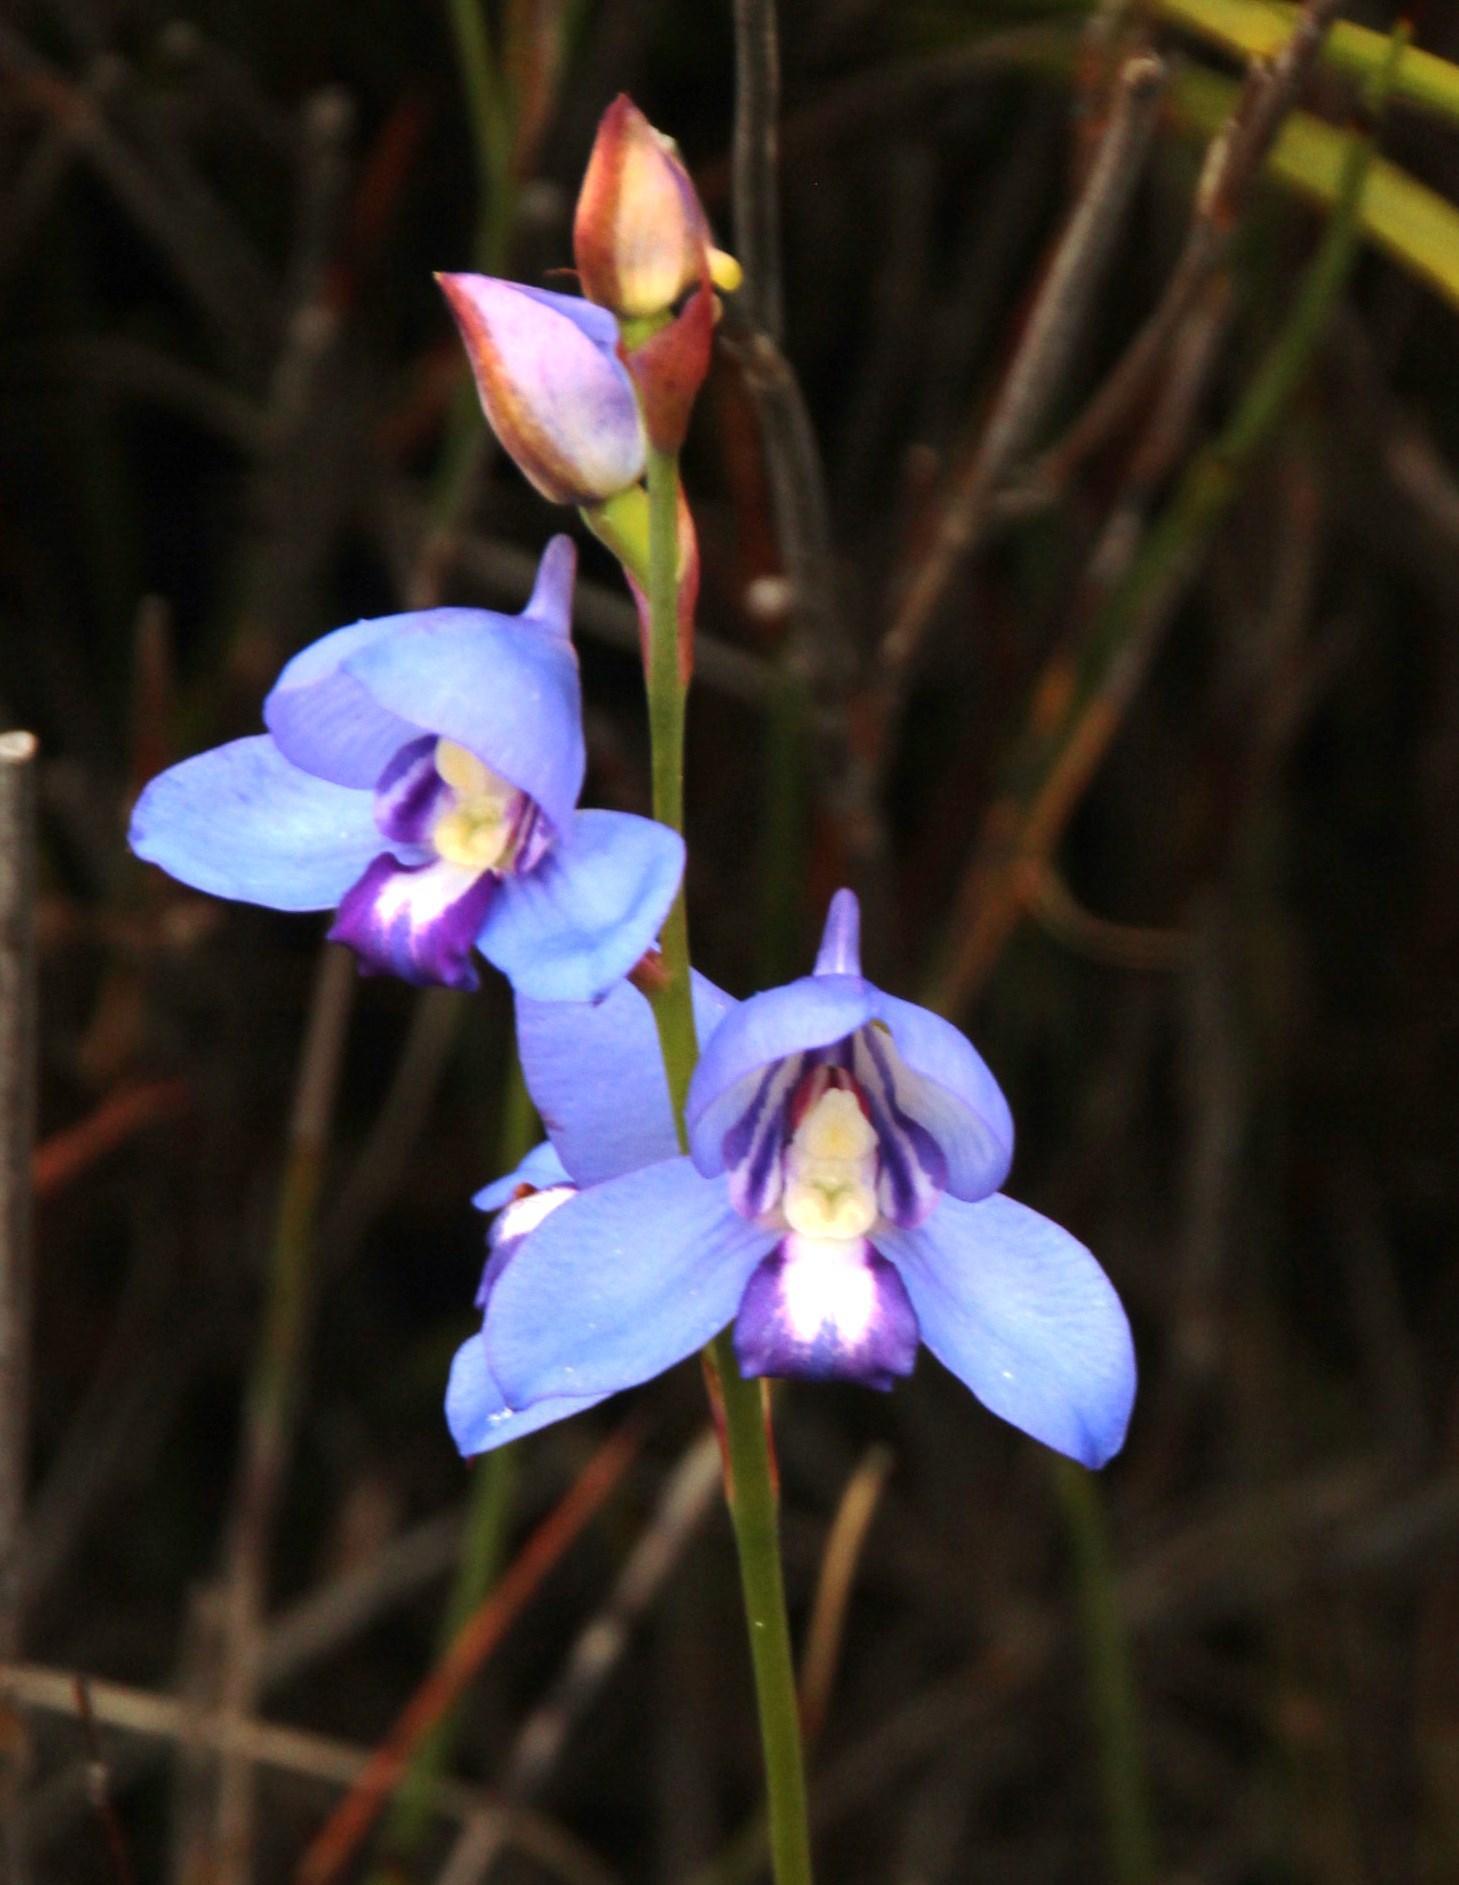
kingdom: Plantae
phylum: Tracheophyta
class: Liliopsida
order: Asparagales
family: Orchidaceae
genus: Disa
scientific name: Disa graminifolia
